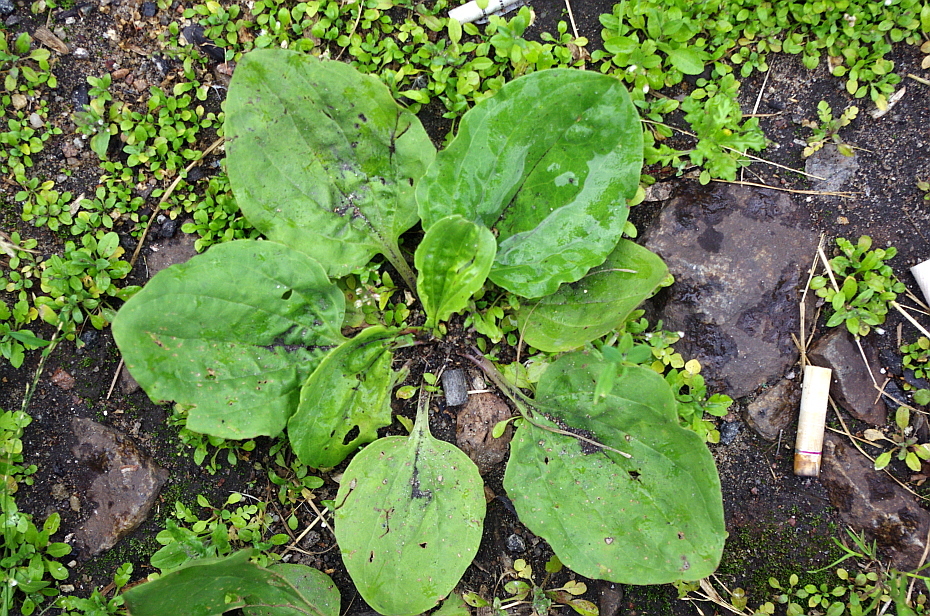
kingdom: Plantae
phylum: Tracheophyta
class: Magnoliopsida
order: Lamiales
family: Plantaginaceae
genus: Plantago
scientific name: Plantago major
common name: Common plantain
